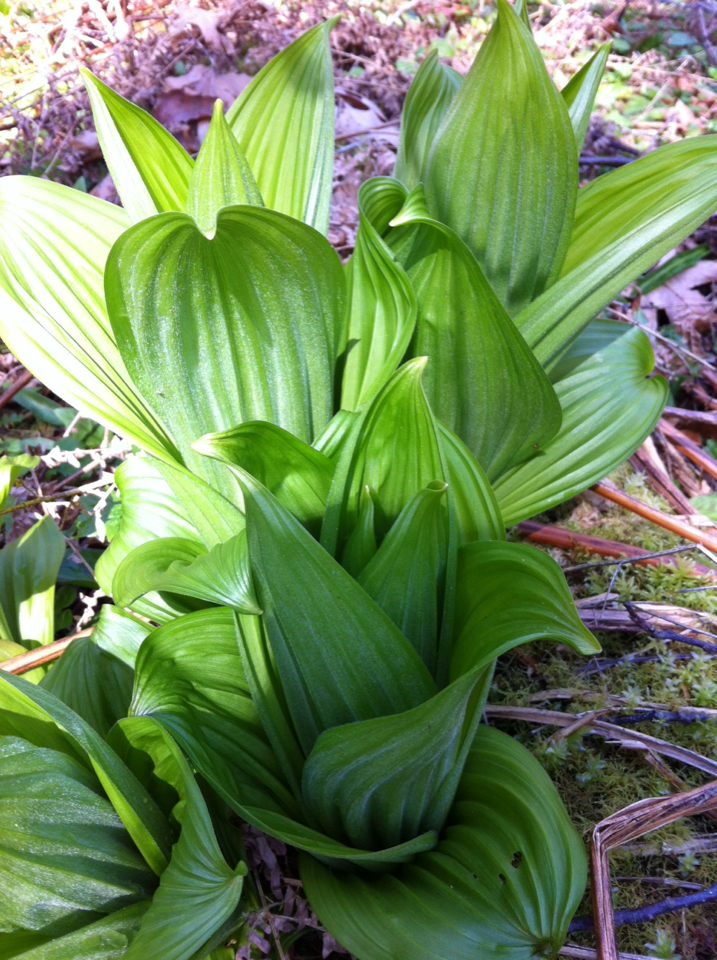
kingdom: Plantae
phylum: Tracheophyta
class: Liliopsida
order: Liliales
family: Melanthiaceae
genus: Veratrum
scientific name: Veratrum viride
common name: American false hellebore
